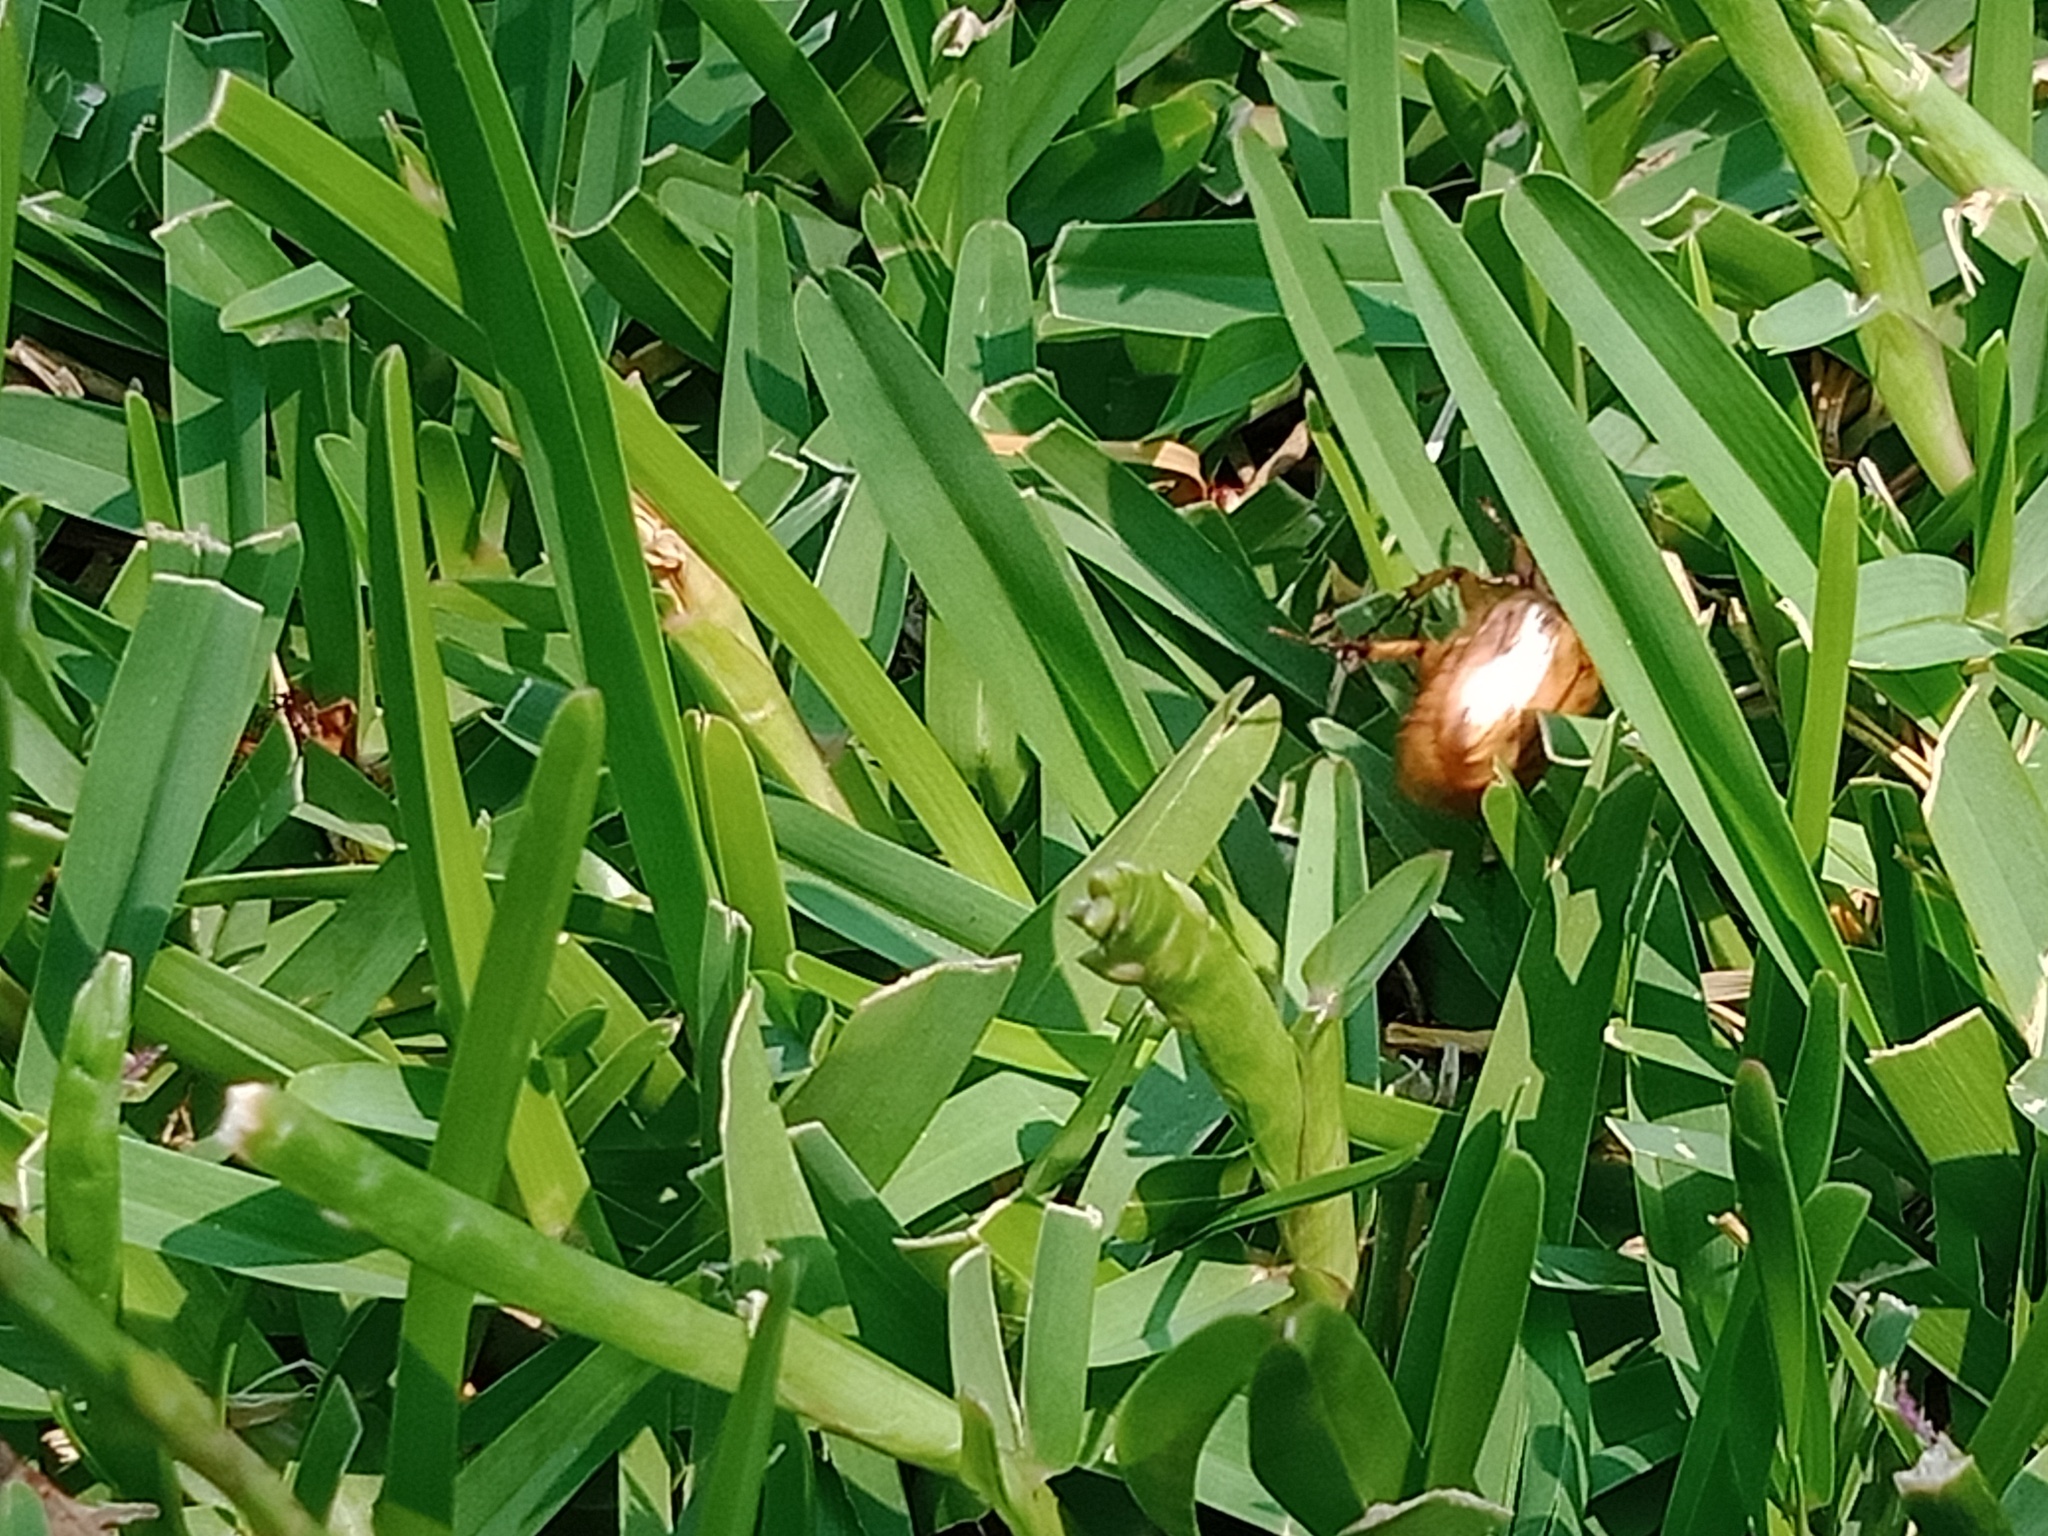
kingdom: Animalia
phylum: Arthropoda
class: Insecta
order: Coleoptera
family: Scarabaeidae
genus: Cyclocephala
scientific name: Cyclocephala signaticollis
